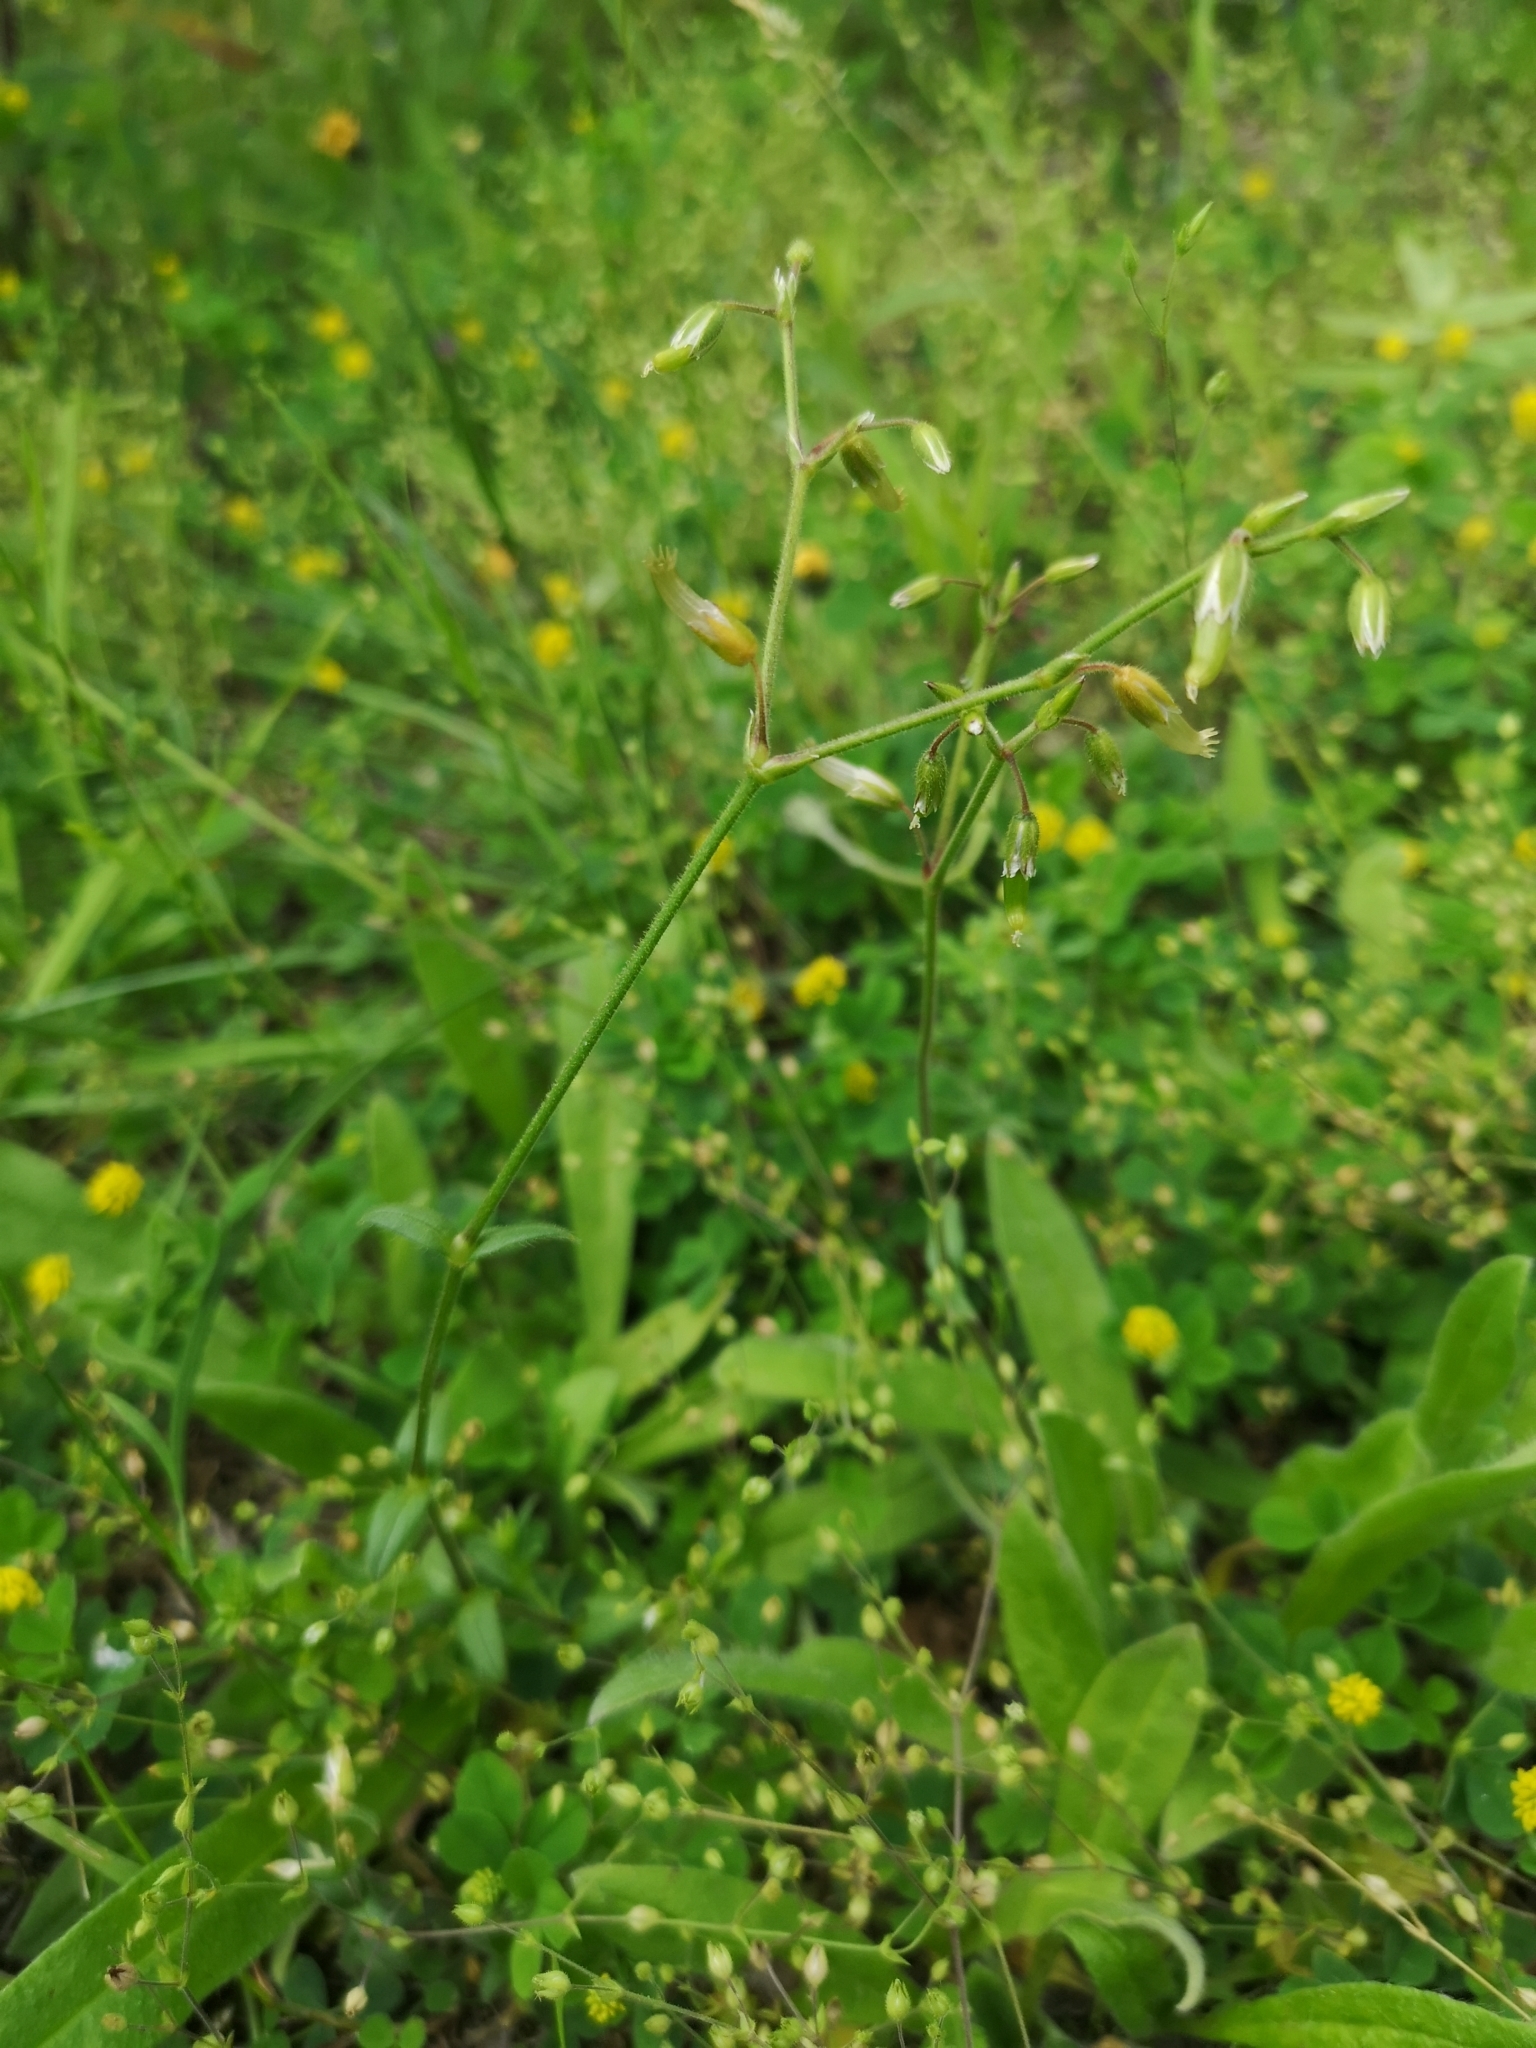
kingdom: Plantae
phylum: Tracheophyta
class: Magnoliopsida
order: Caryophyllales
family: Caryophyllaceae
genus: Cerastium
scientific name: Cerastium fontanum
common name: Common mouse-ear
